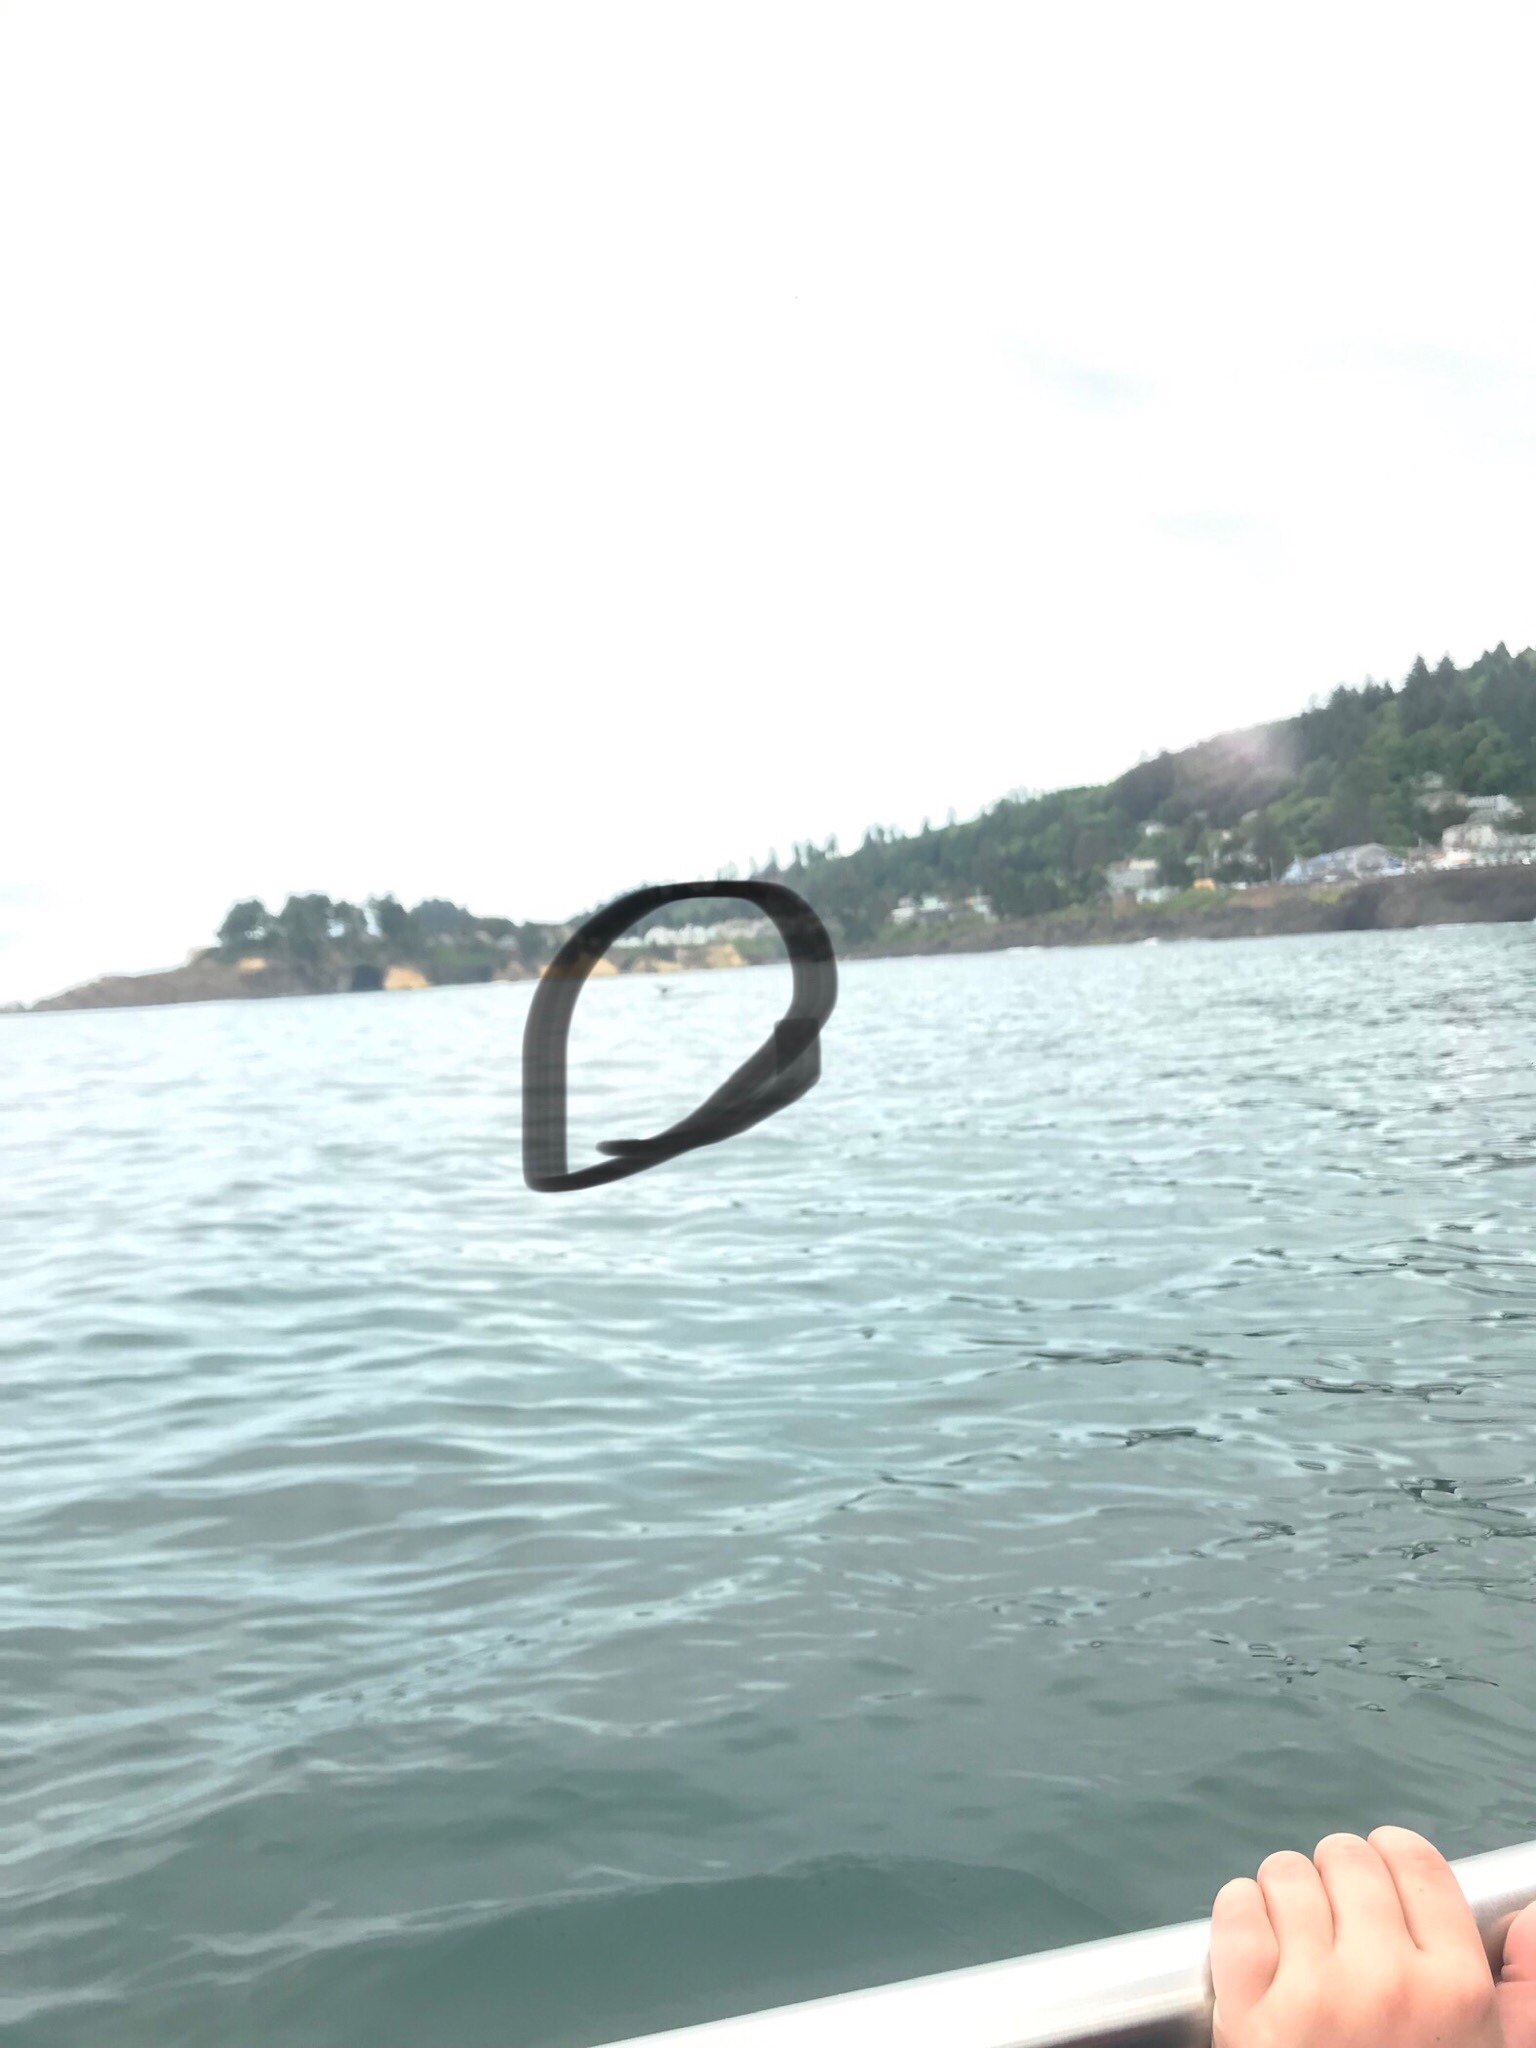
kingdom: Animalia
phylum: Chordata
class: Mammalia
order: Cetacea
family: Eschrichtiidae
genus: Eschrichtius
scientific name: Eschrichtius robustus
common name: Gray whale
